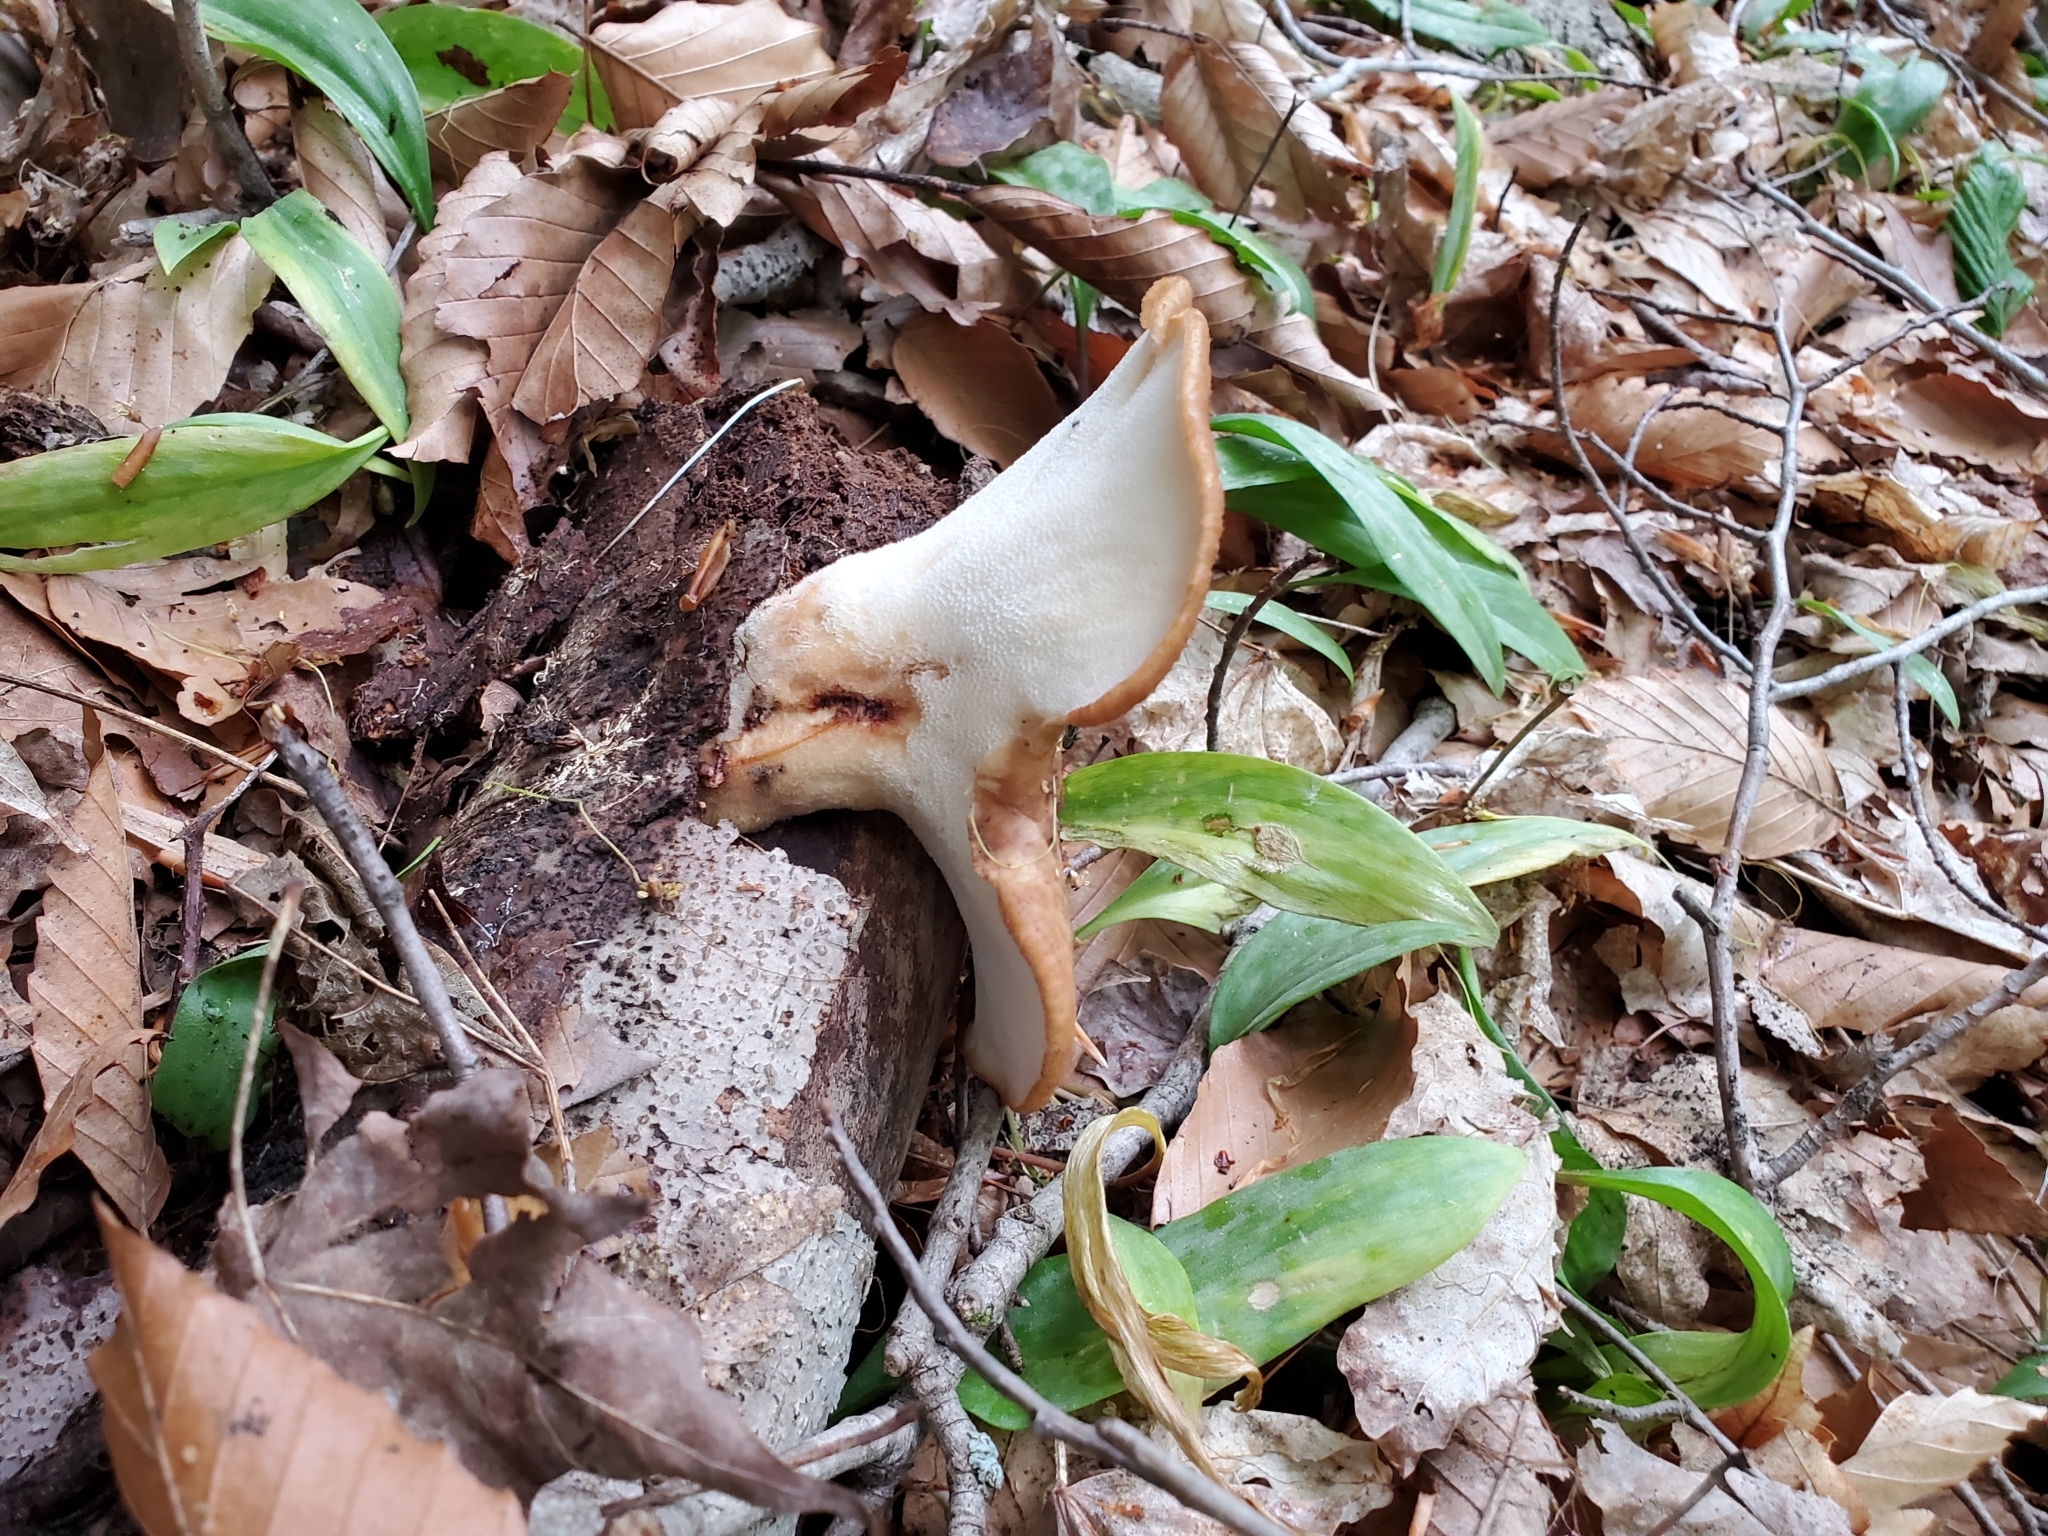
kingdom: Fungi
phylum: Basidiomycota
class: Agaricomycetes
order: Polyporales
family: Polyporaceae
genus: Cerioporus
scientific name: Cerioporus squamosus
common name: Dryad's saddle
